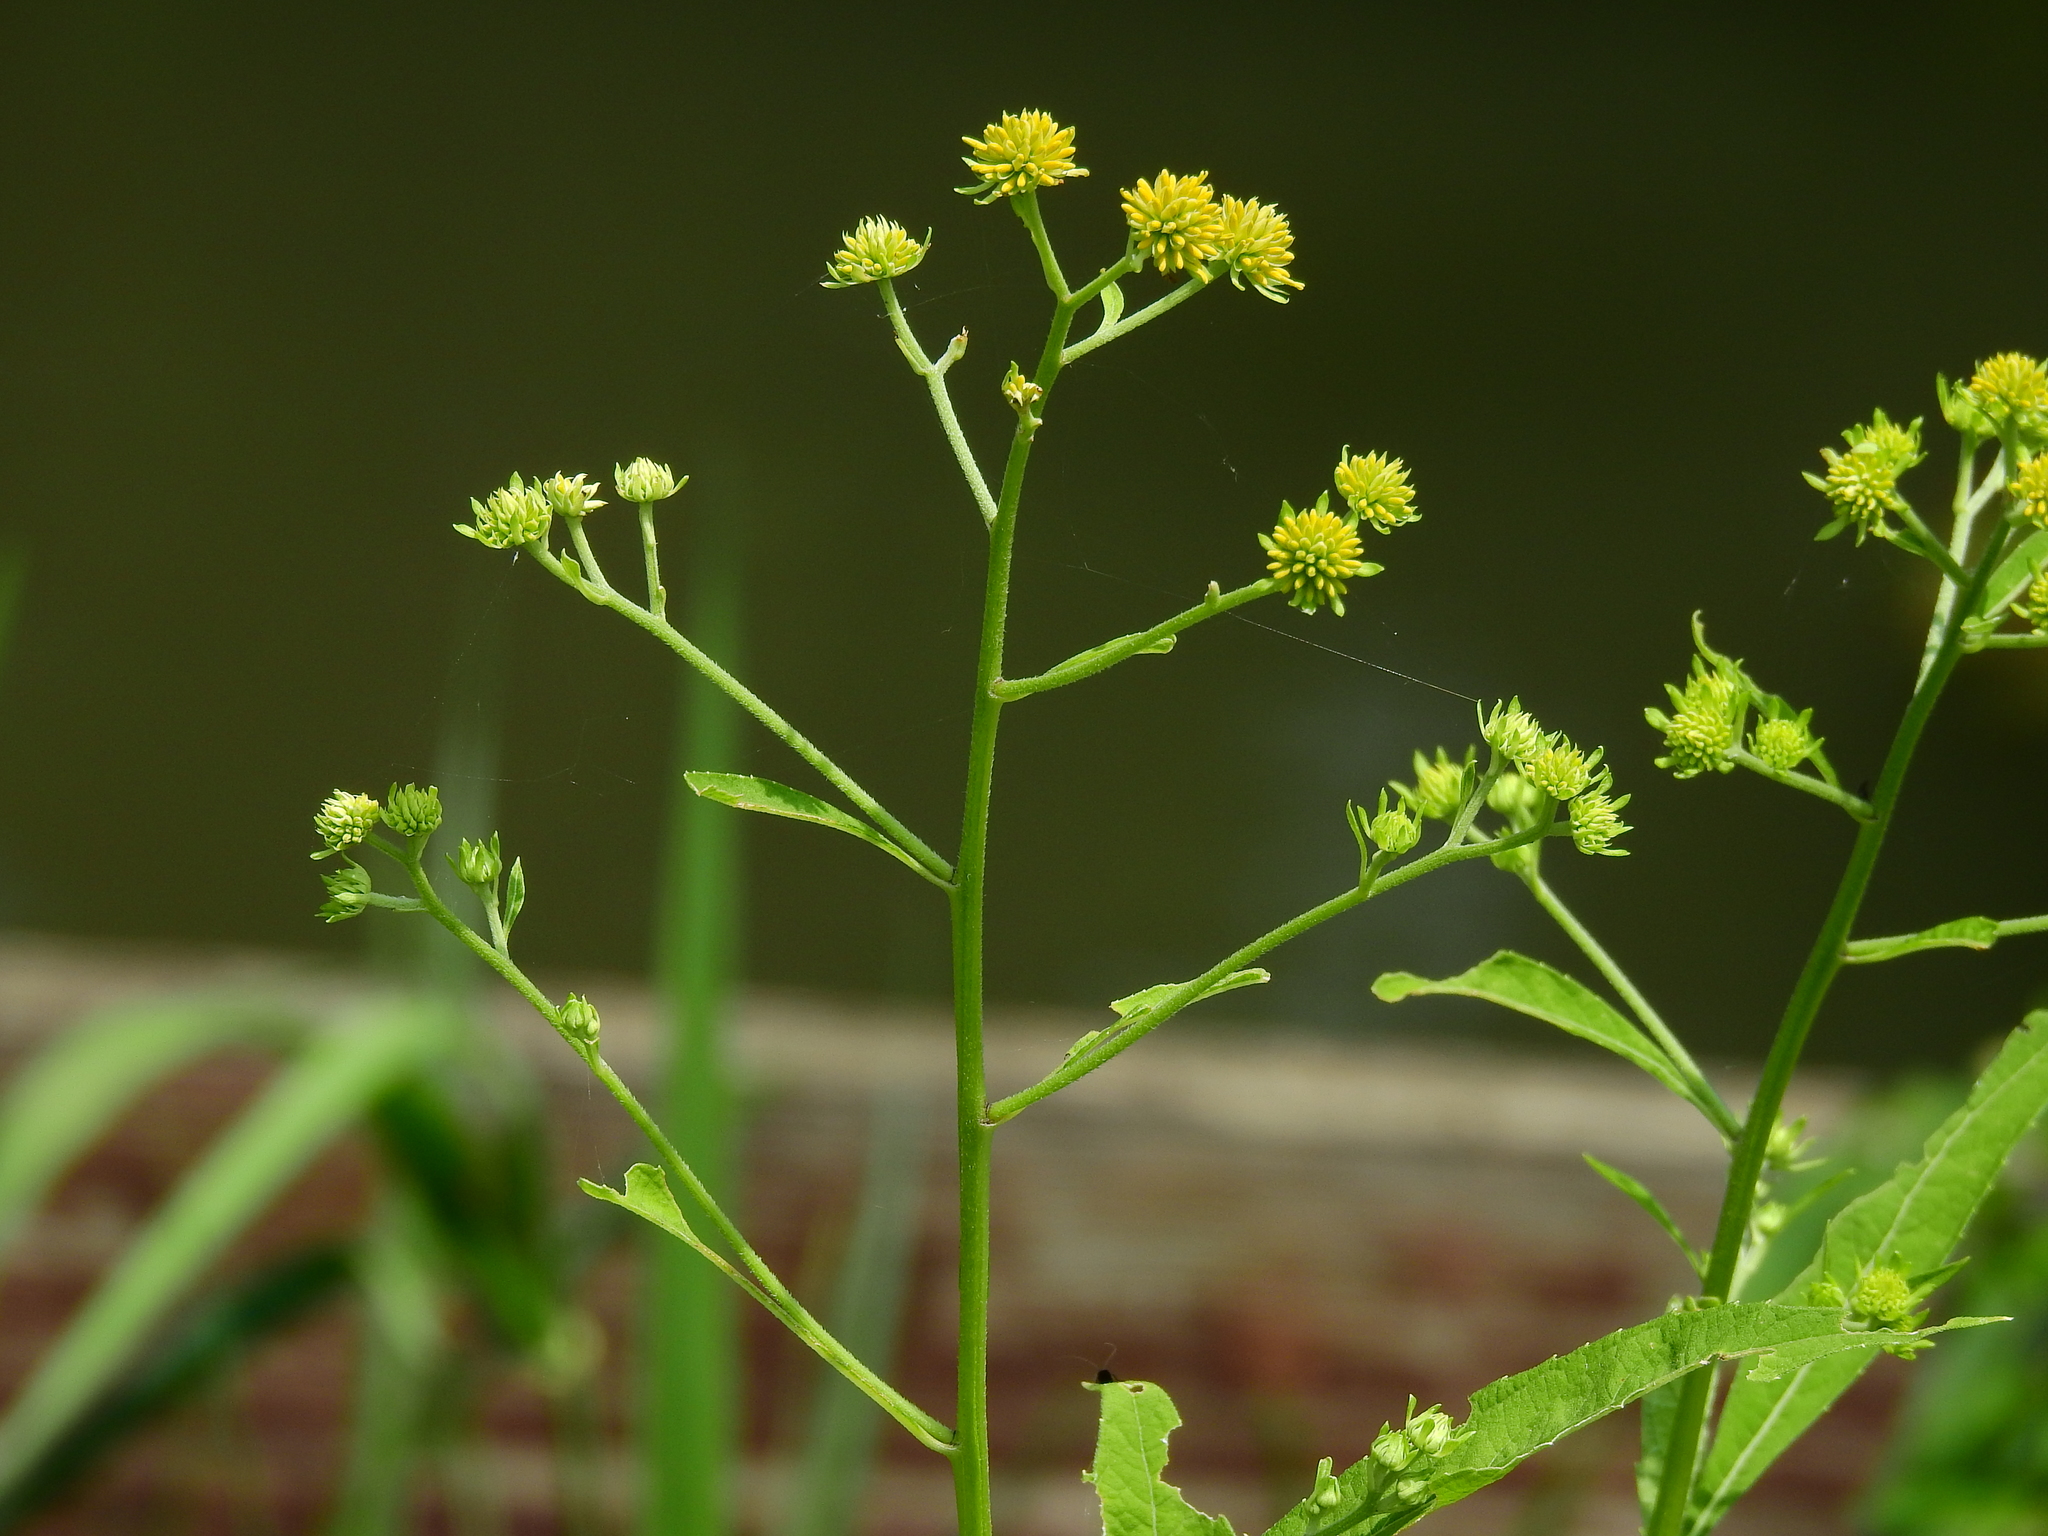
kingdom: Plantae
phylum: Tracheophyta
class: Magnoliopsida
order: Asterales
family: Asteraceae
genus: Verbesina
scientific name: Verbesina alternifolia
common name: Wingstem
